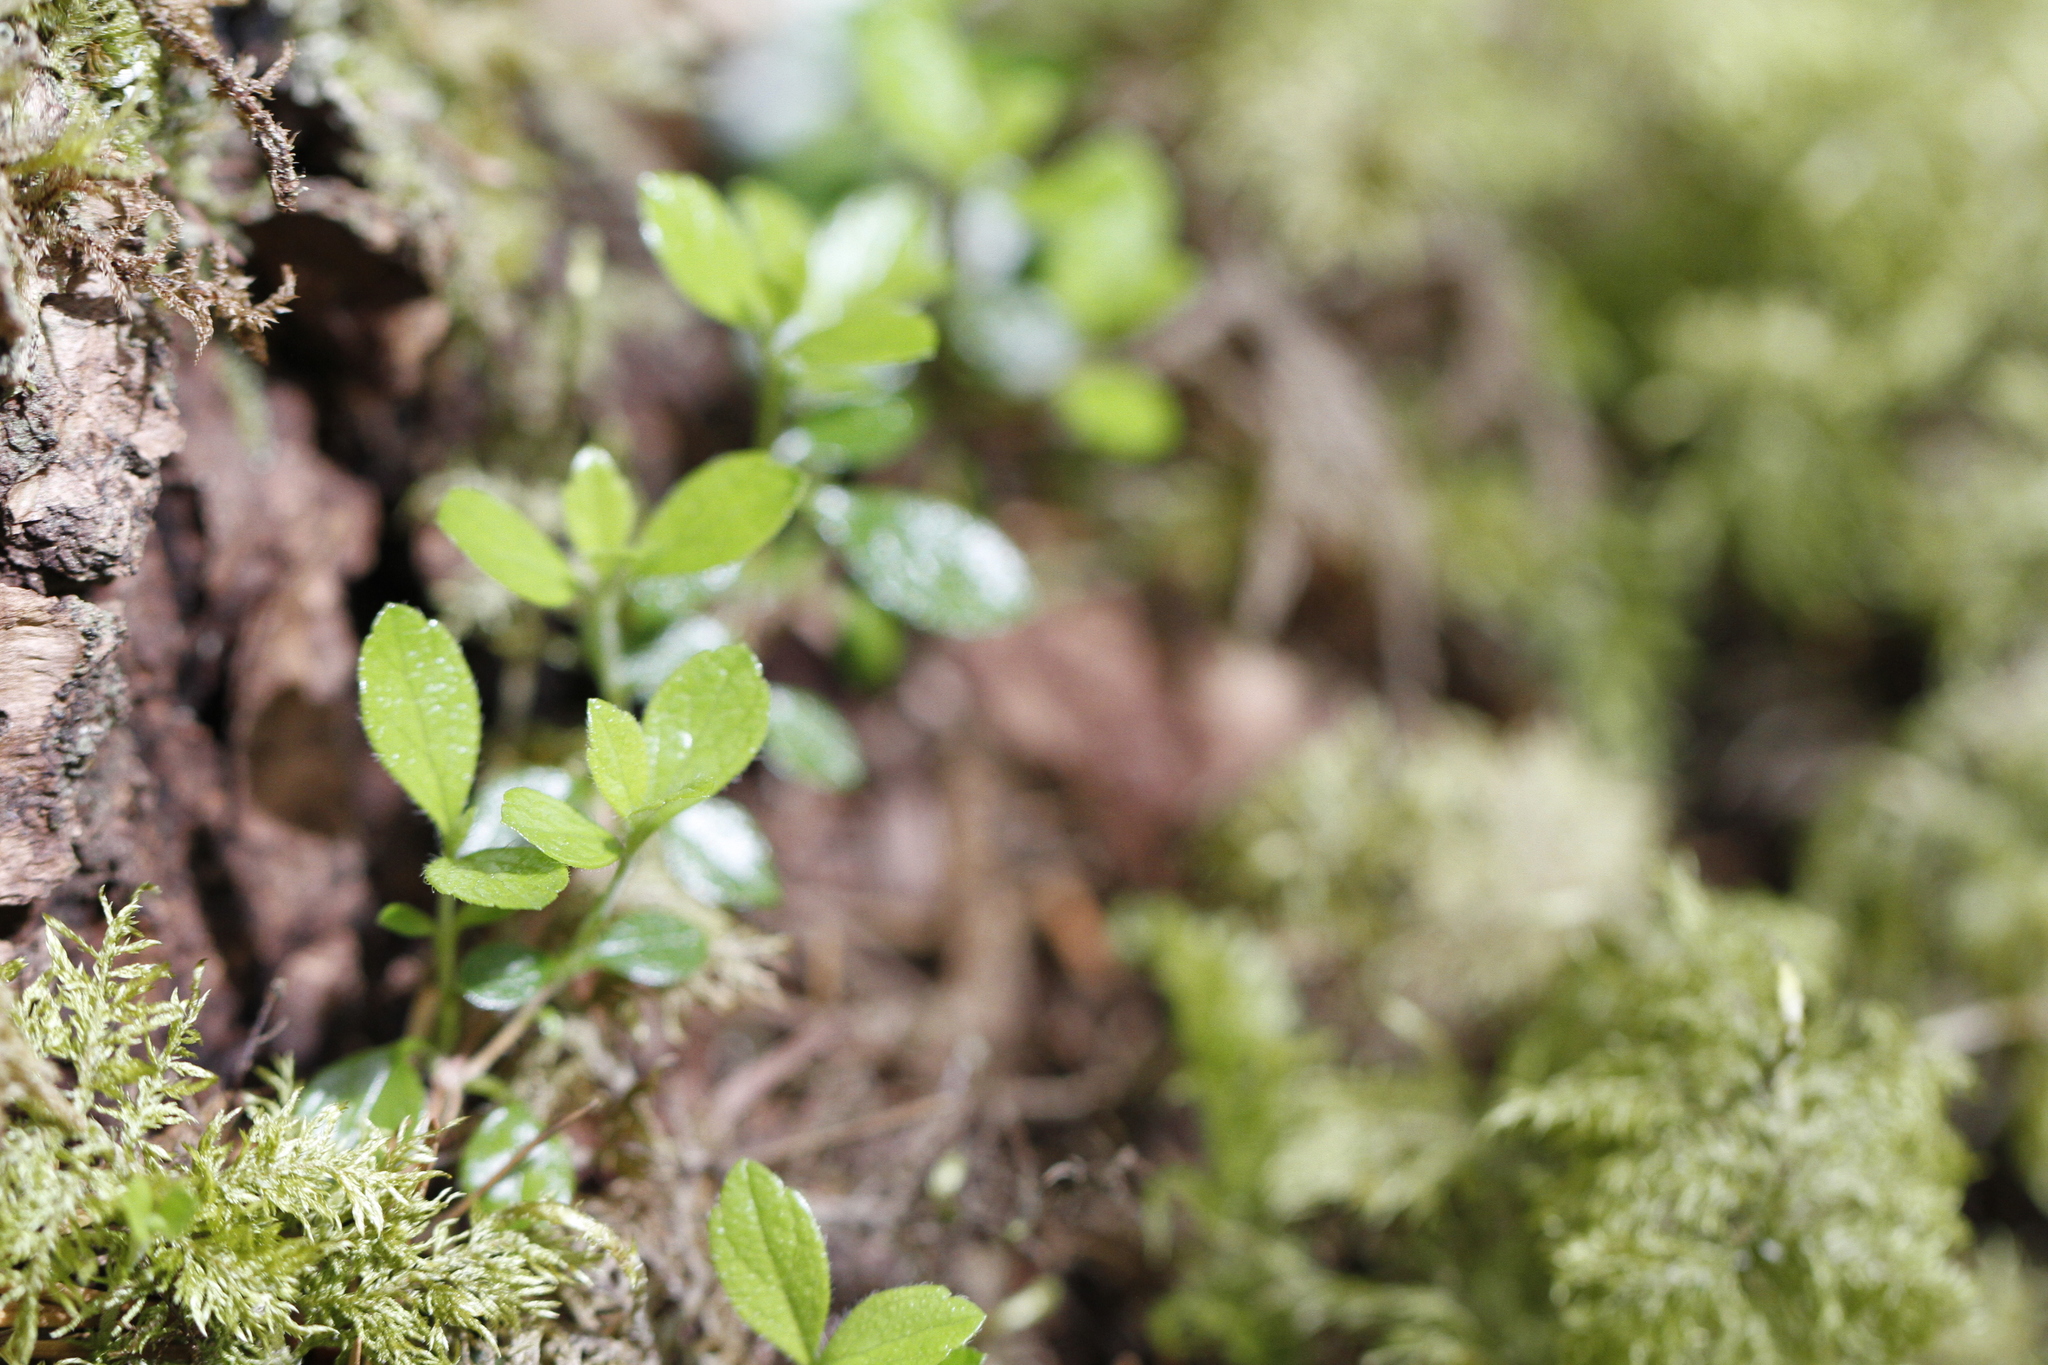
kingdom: Plantae
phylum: Tracheophyta
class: Magnoliopsida
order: Dipsacales
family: Caprifoliaceae
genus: Linnaea
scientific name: Linnaea borealis
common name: Twinflower
